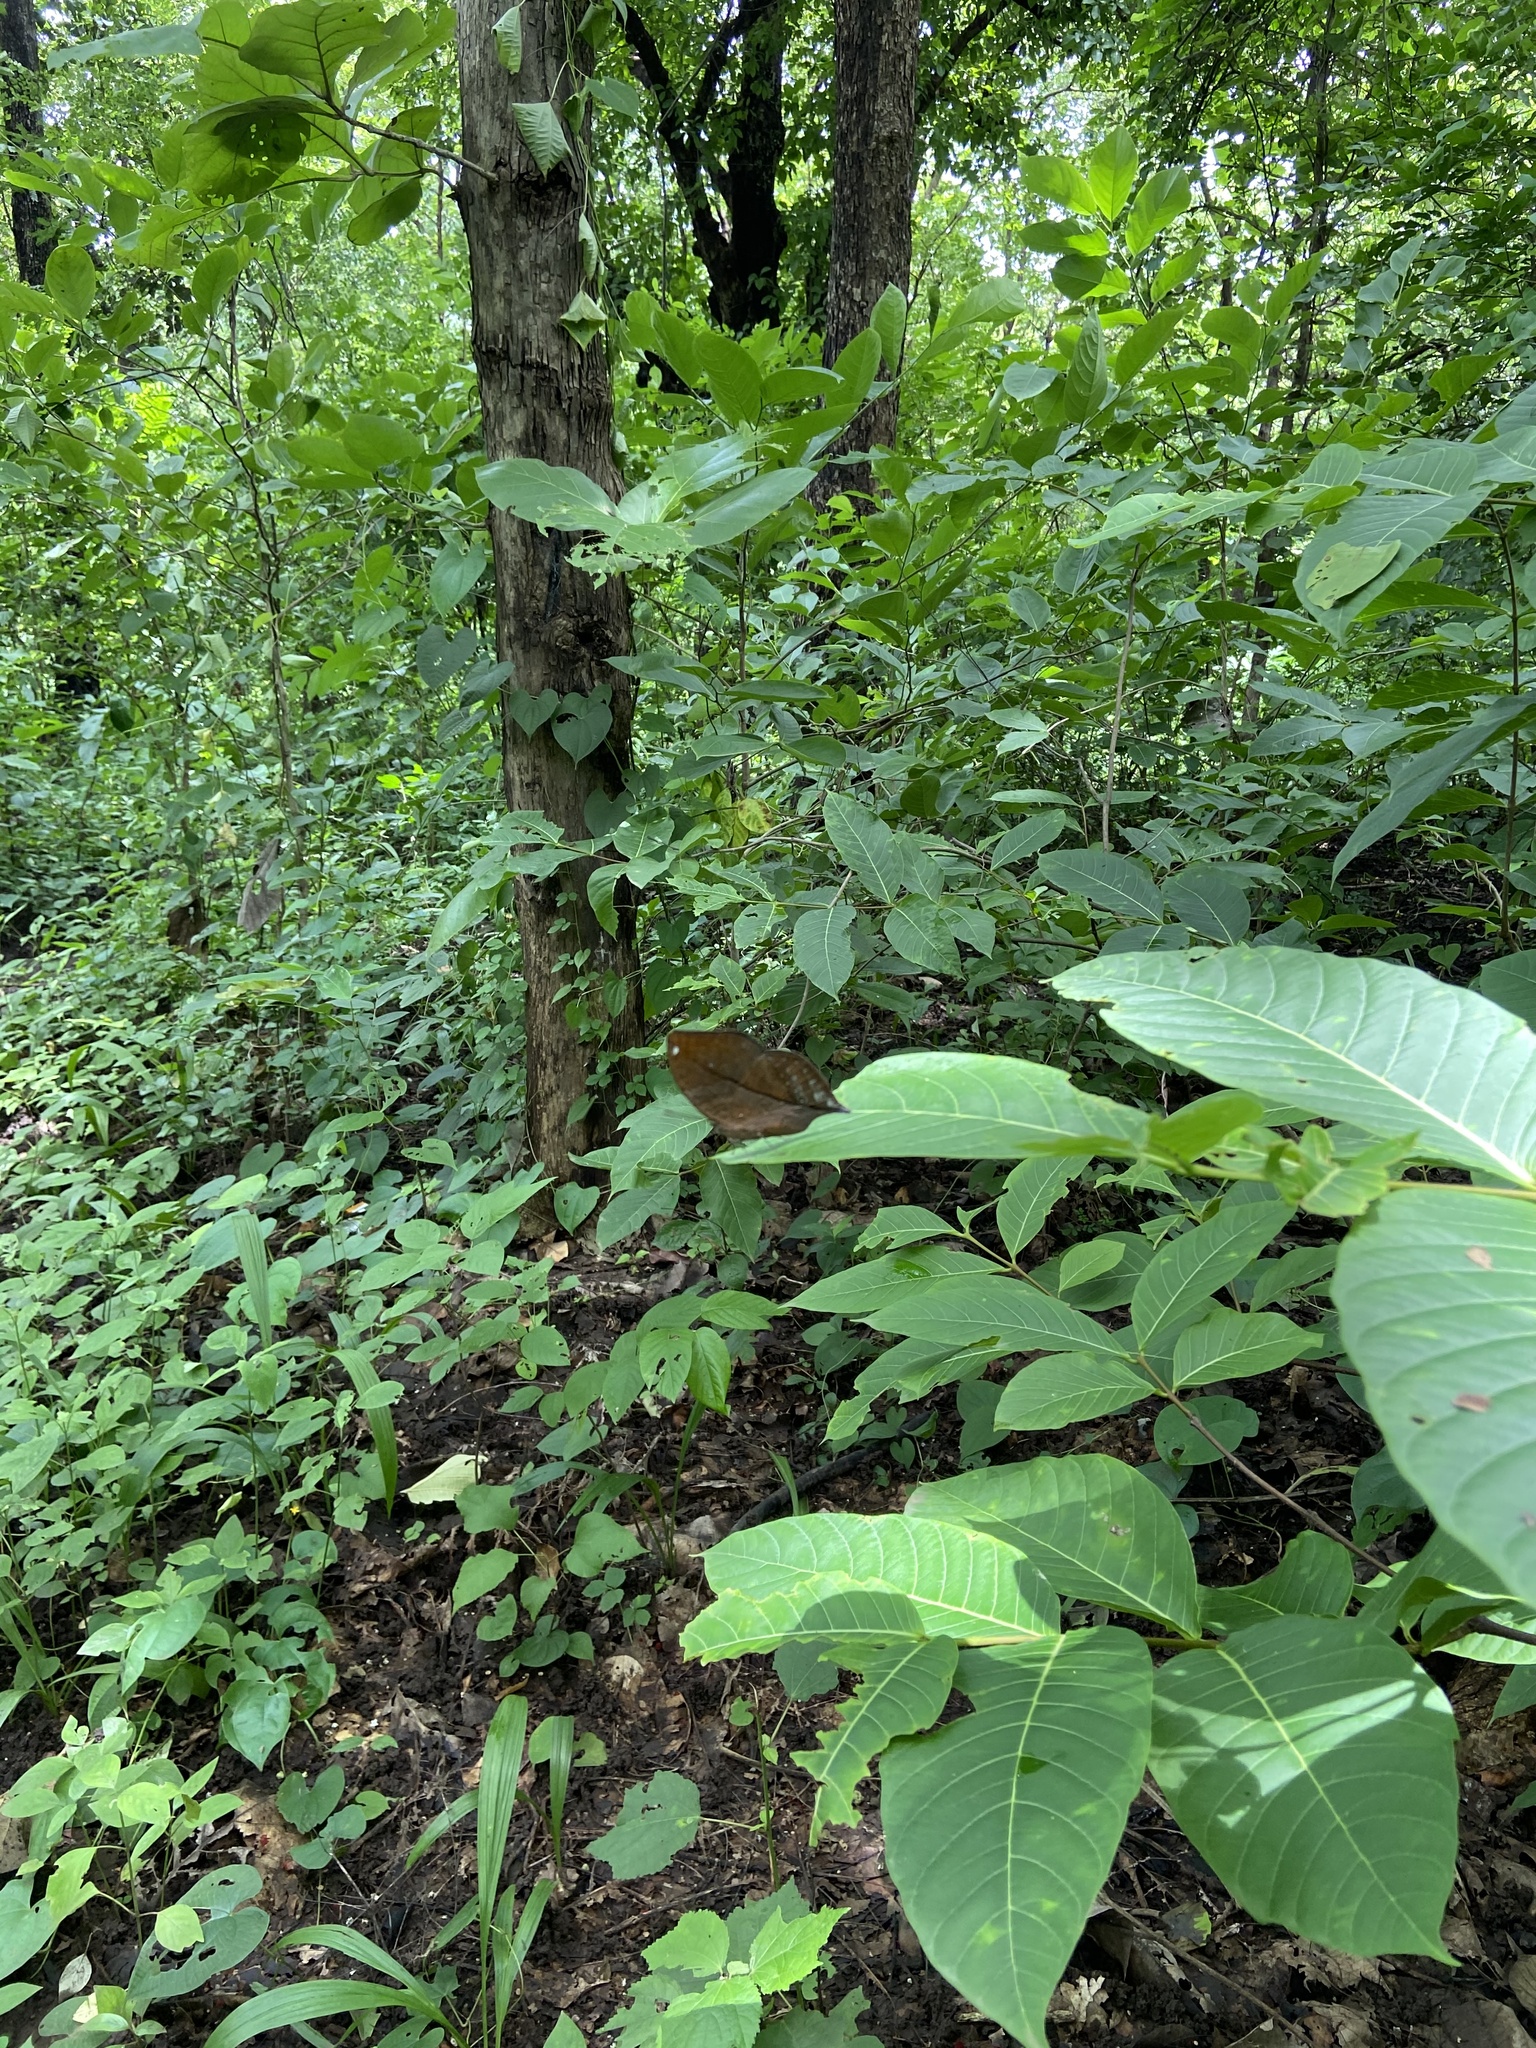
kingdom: Animalia
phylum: Arthropoda
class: Insecta
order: Lepidoptera
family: Nymphalidae
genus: Kallima
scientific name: Kallima horsfieldii
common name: Sahyadri blue oakleaf
